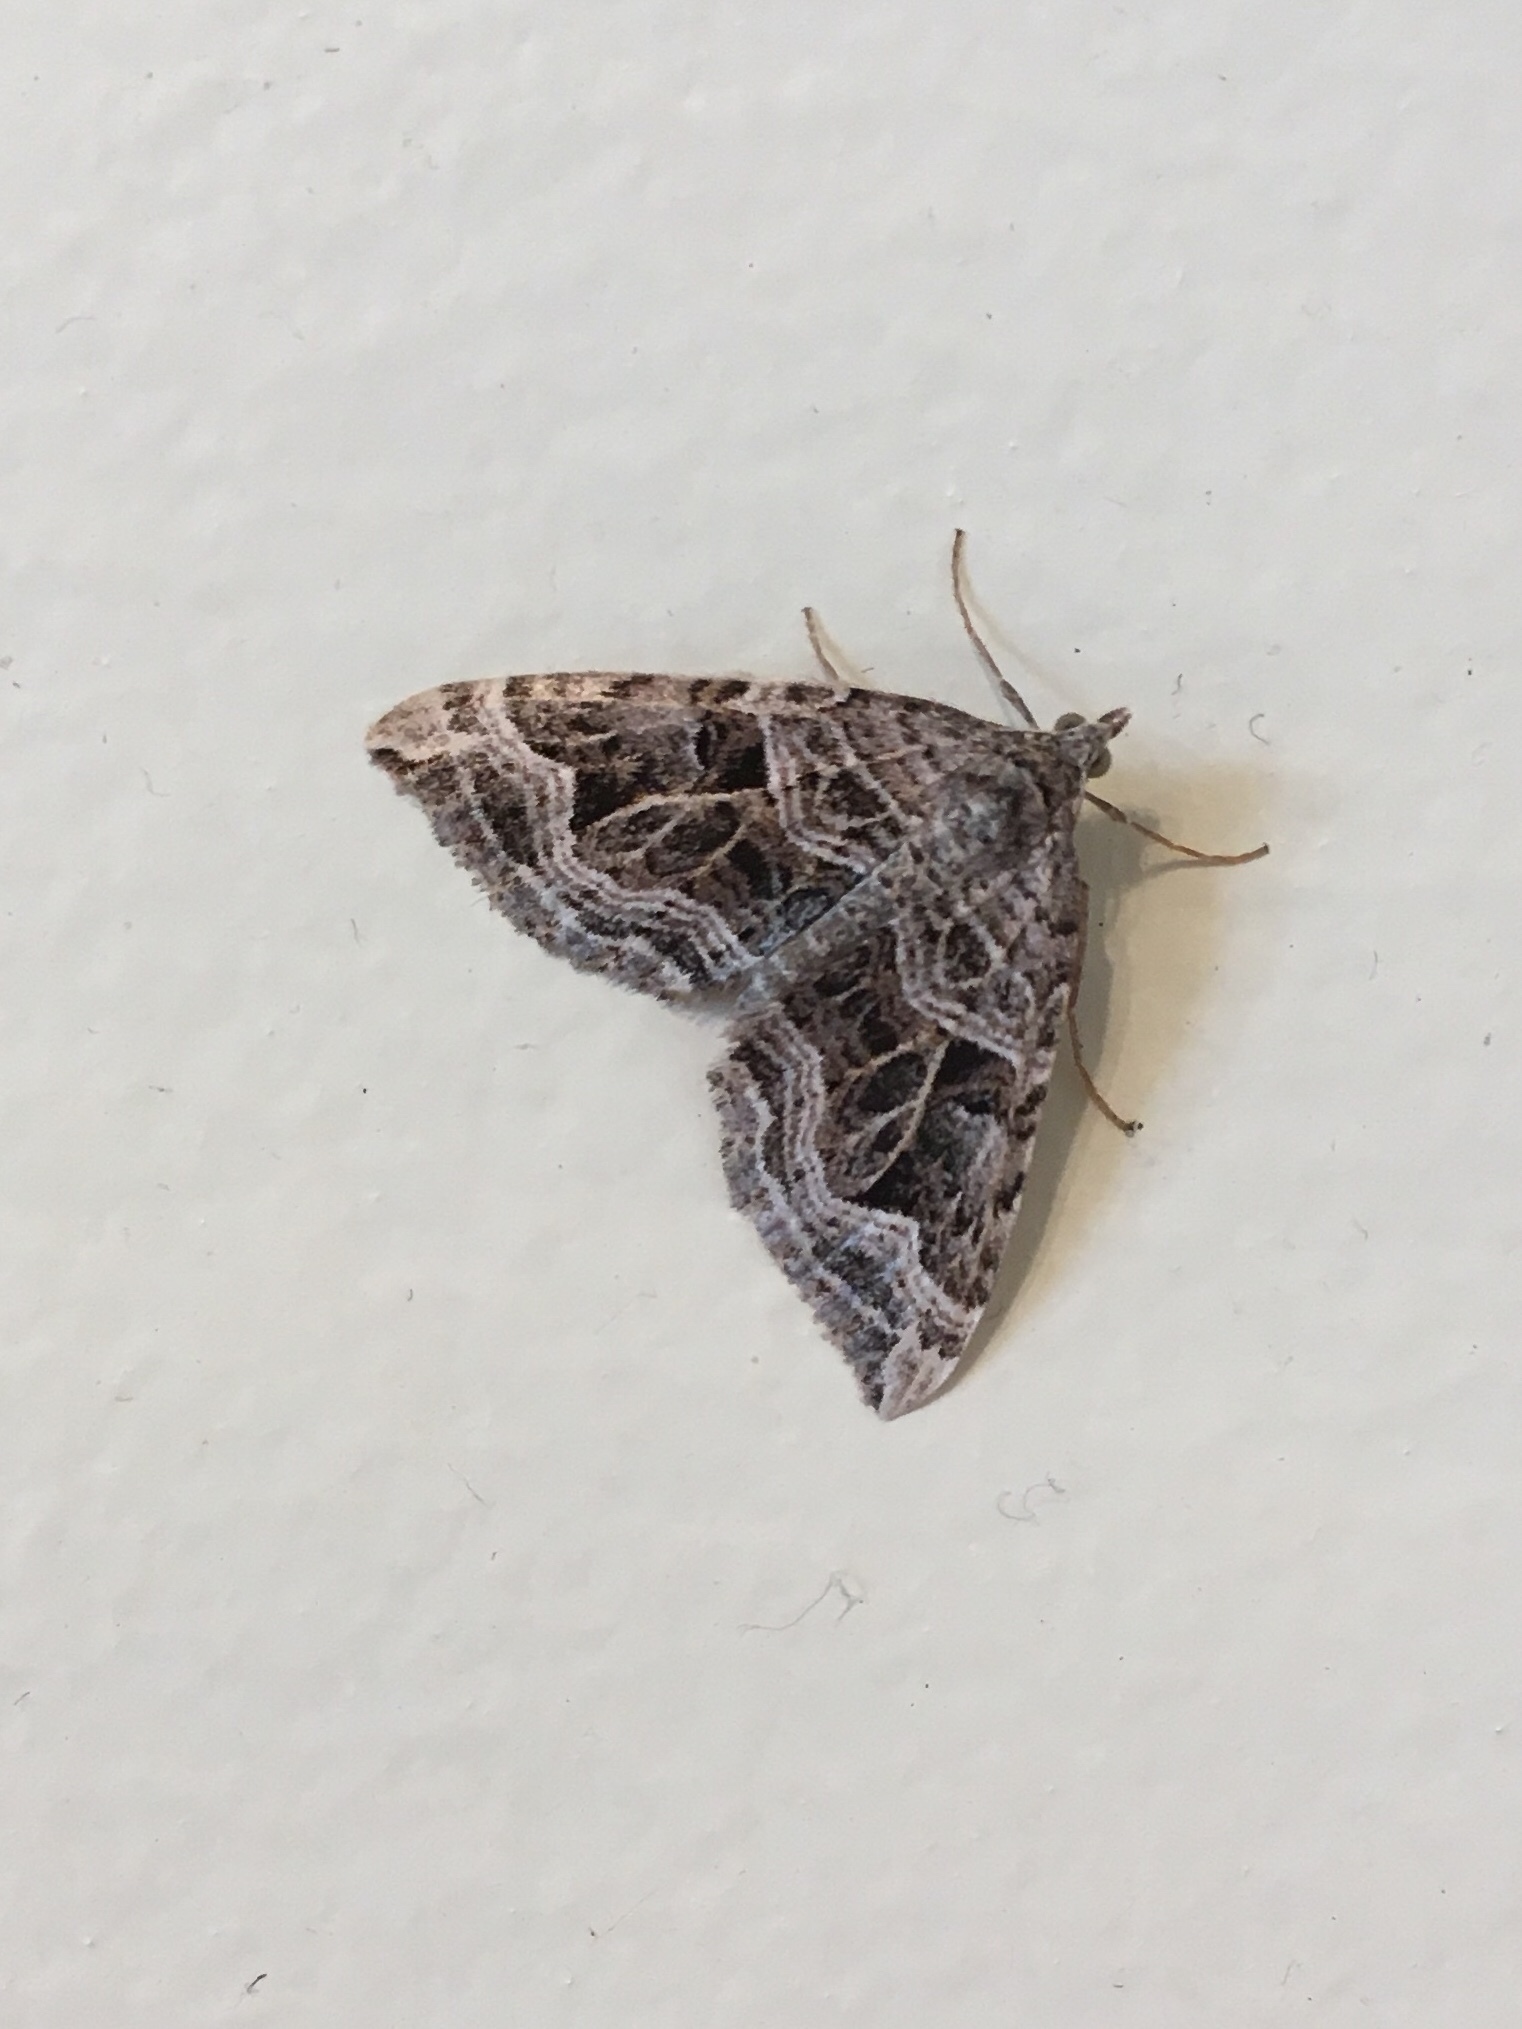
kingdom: Animalia
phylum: Arthropoda
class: Insecta
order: Lepidoptera
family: Geometridae
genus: Xanthorhoe
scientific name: Xanthorhoe semifissata
